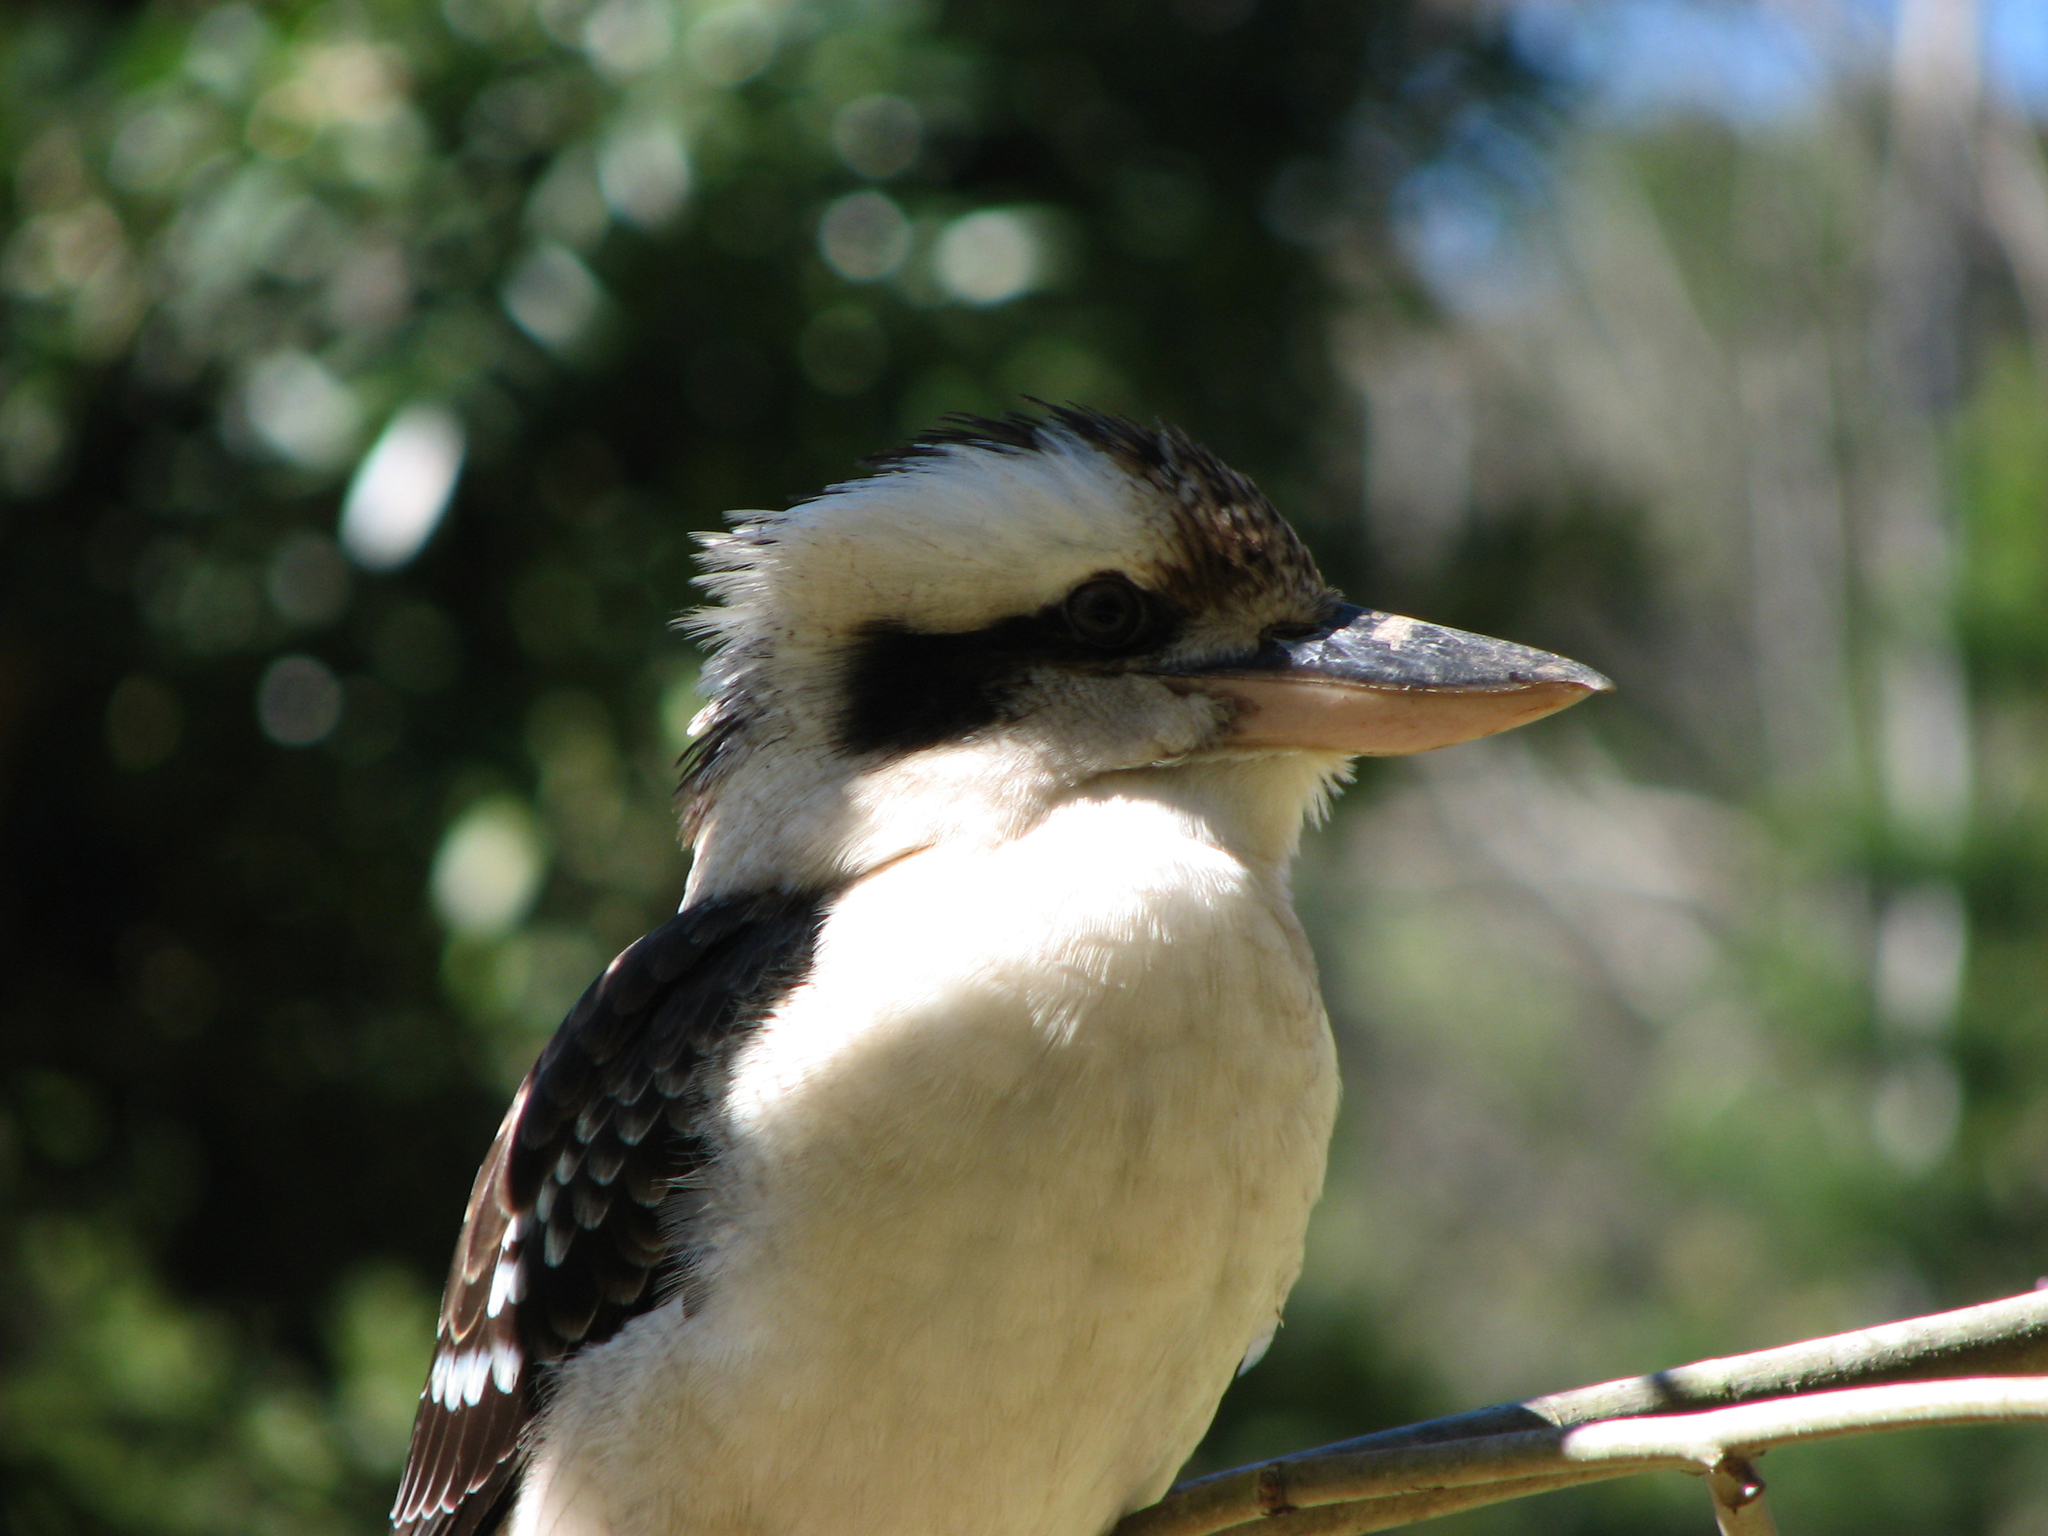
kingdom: Animalia
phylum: Chordata
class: Aves
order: Coraciiformes
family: Alcedinidae
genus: Dacelo
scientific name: Dacelo novaeguineae
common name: Laughing kookaburra
